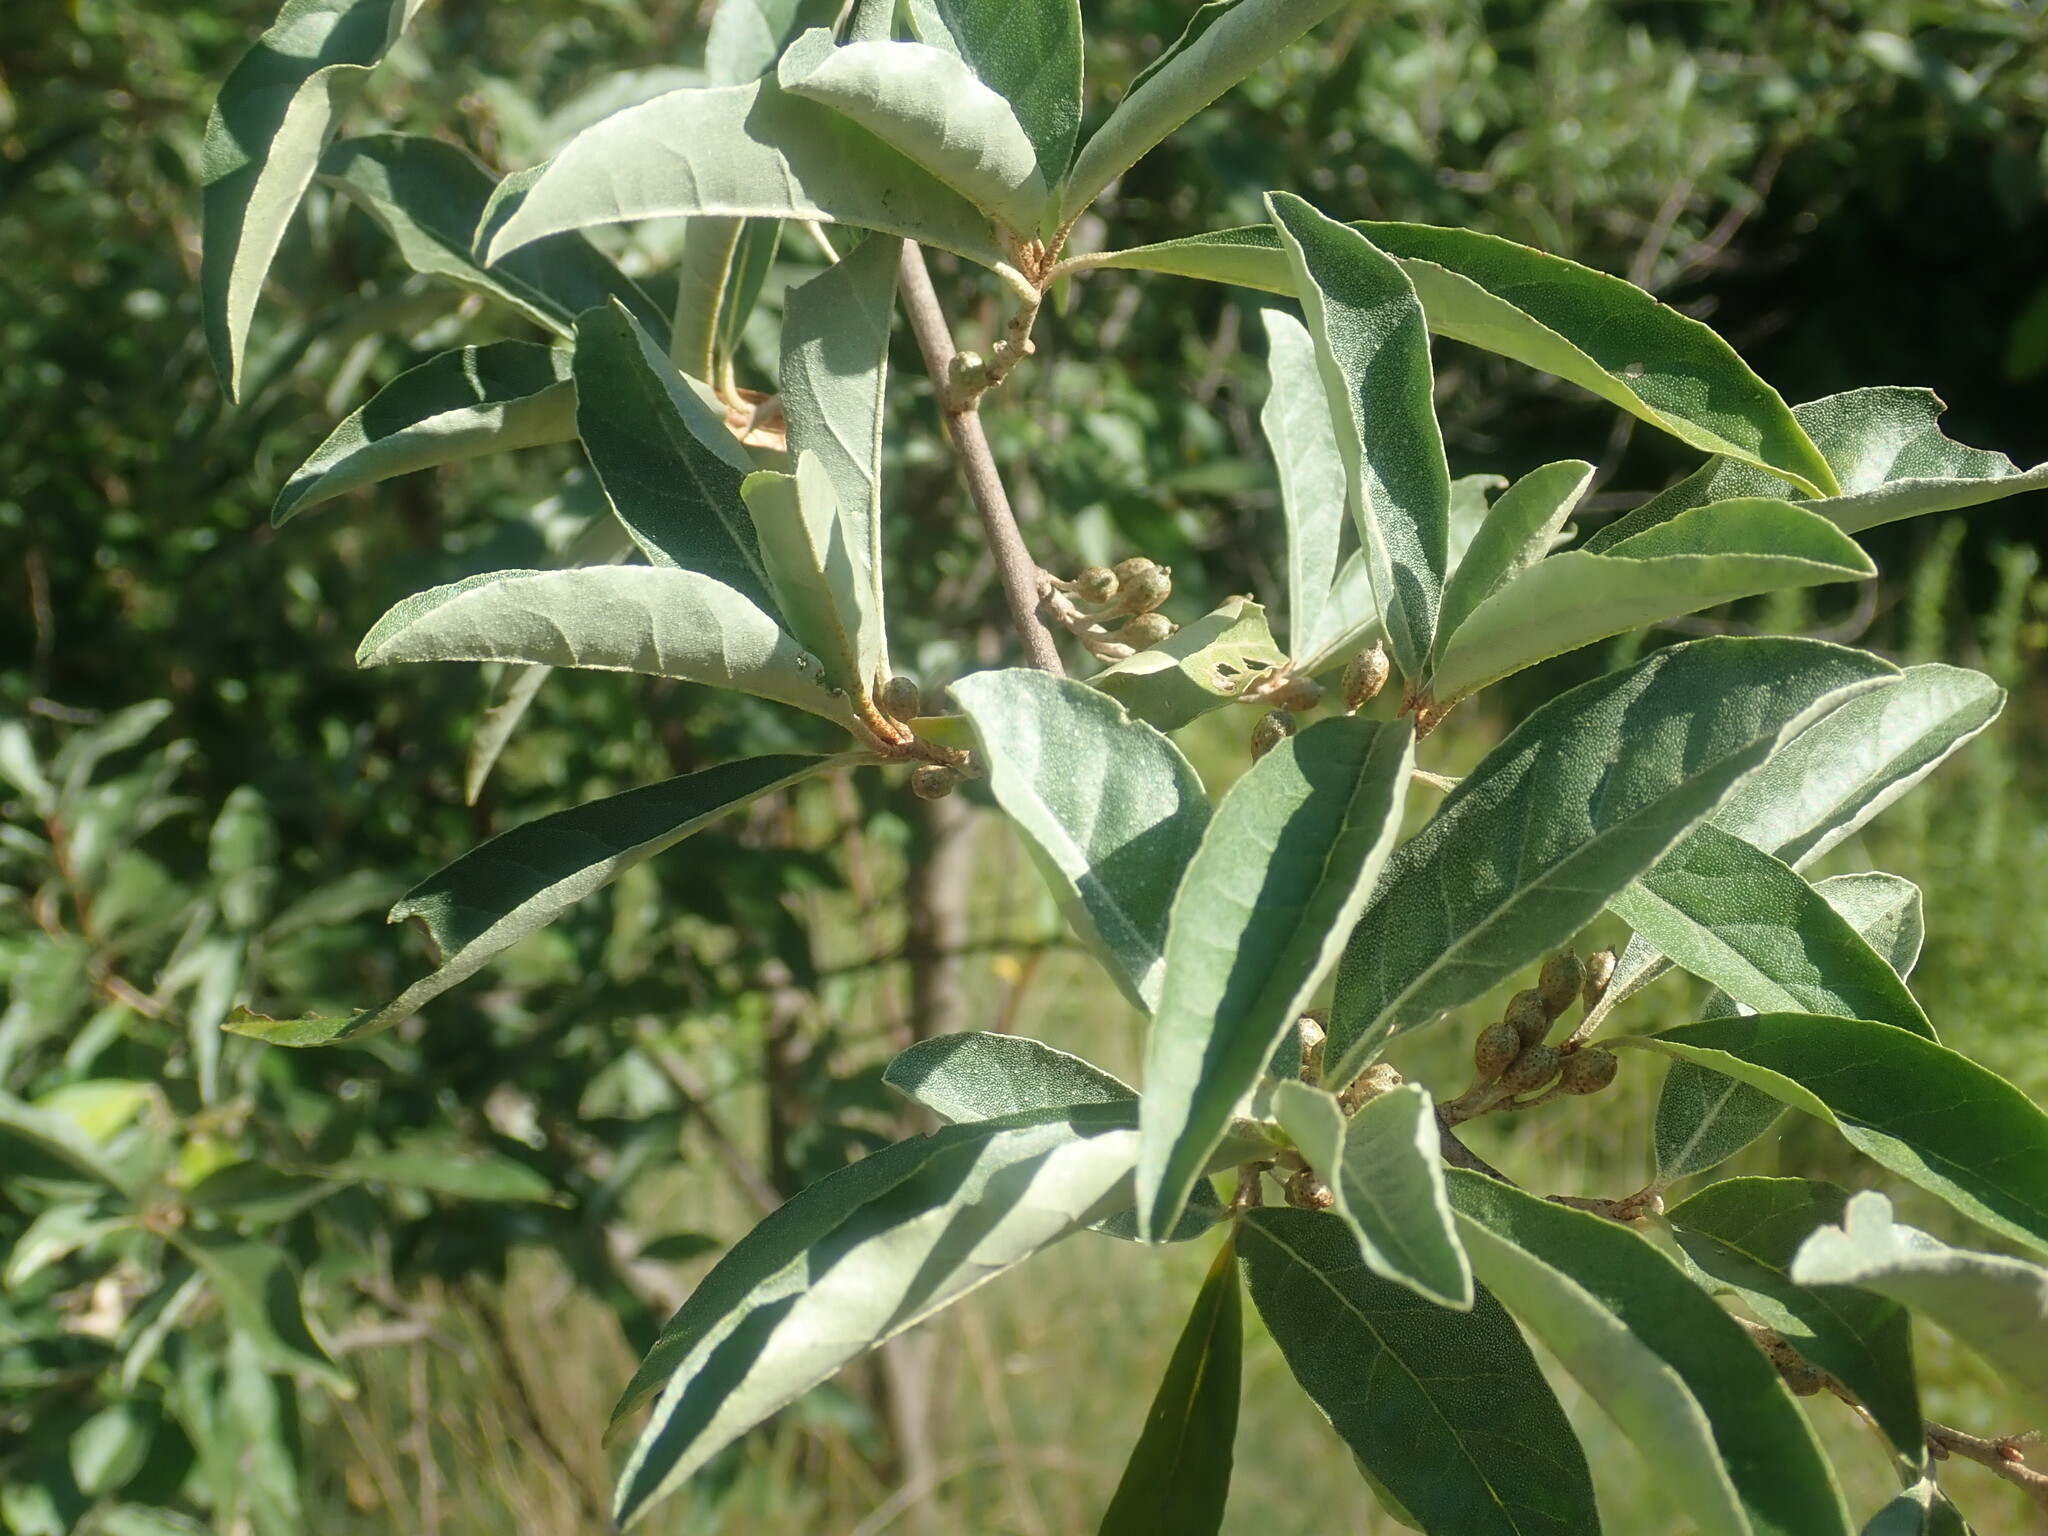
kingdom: Plantae
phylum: Tracheophyta
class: Magnoliopsida
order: Rosales
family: Elaeagnaceae
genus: Elaeagnus
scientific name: Elaeagnus umbellata
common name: Autumn olive
